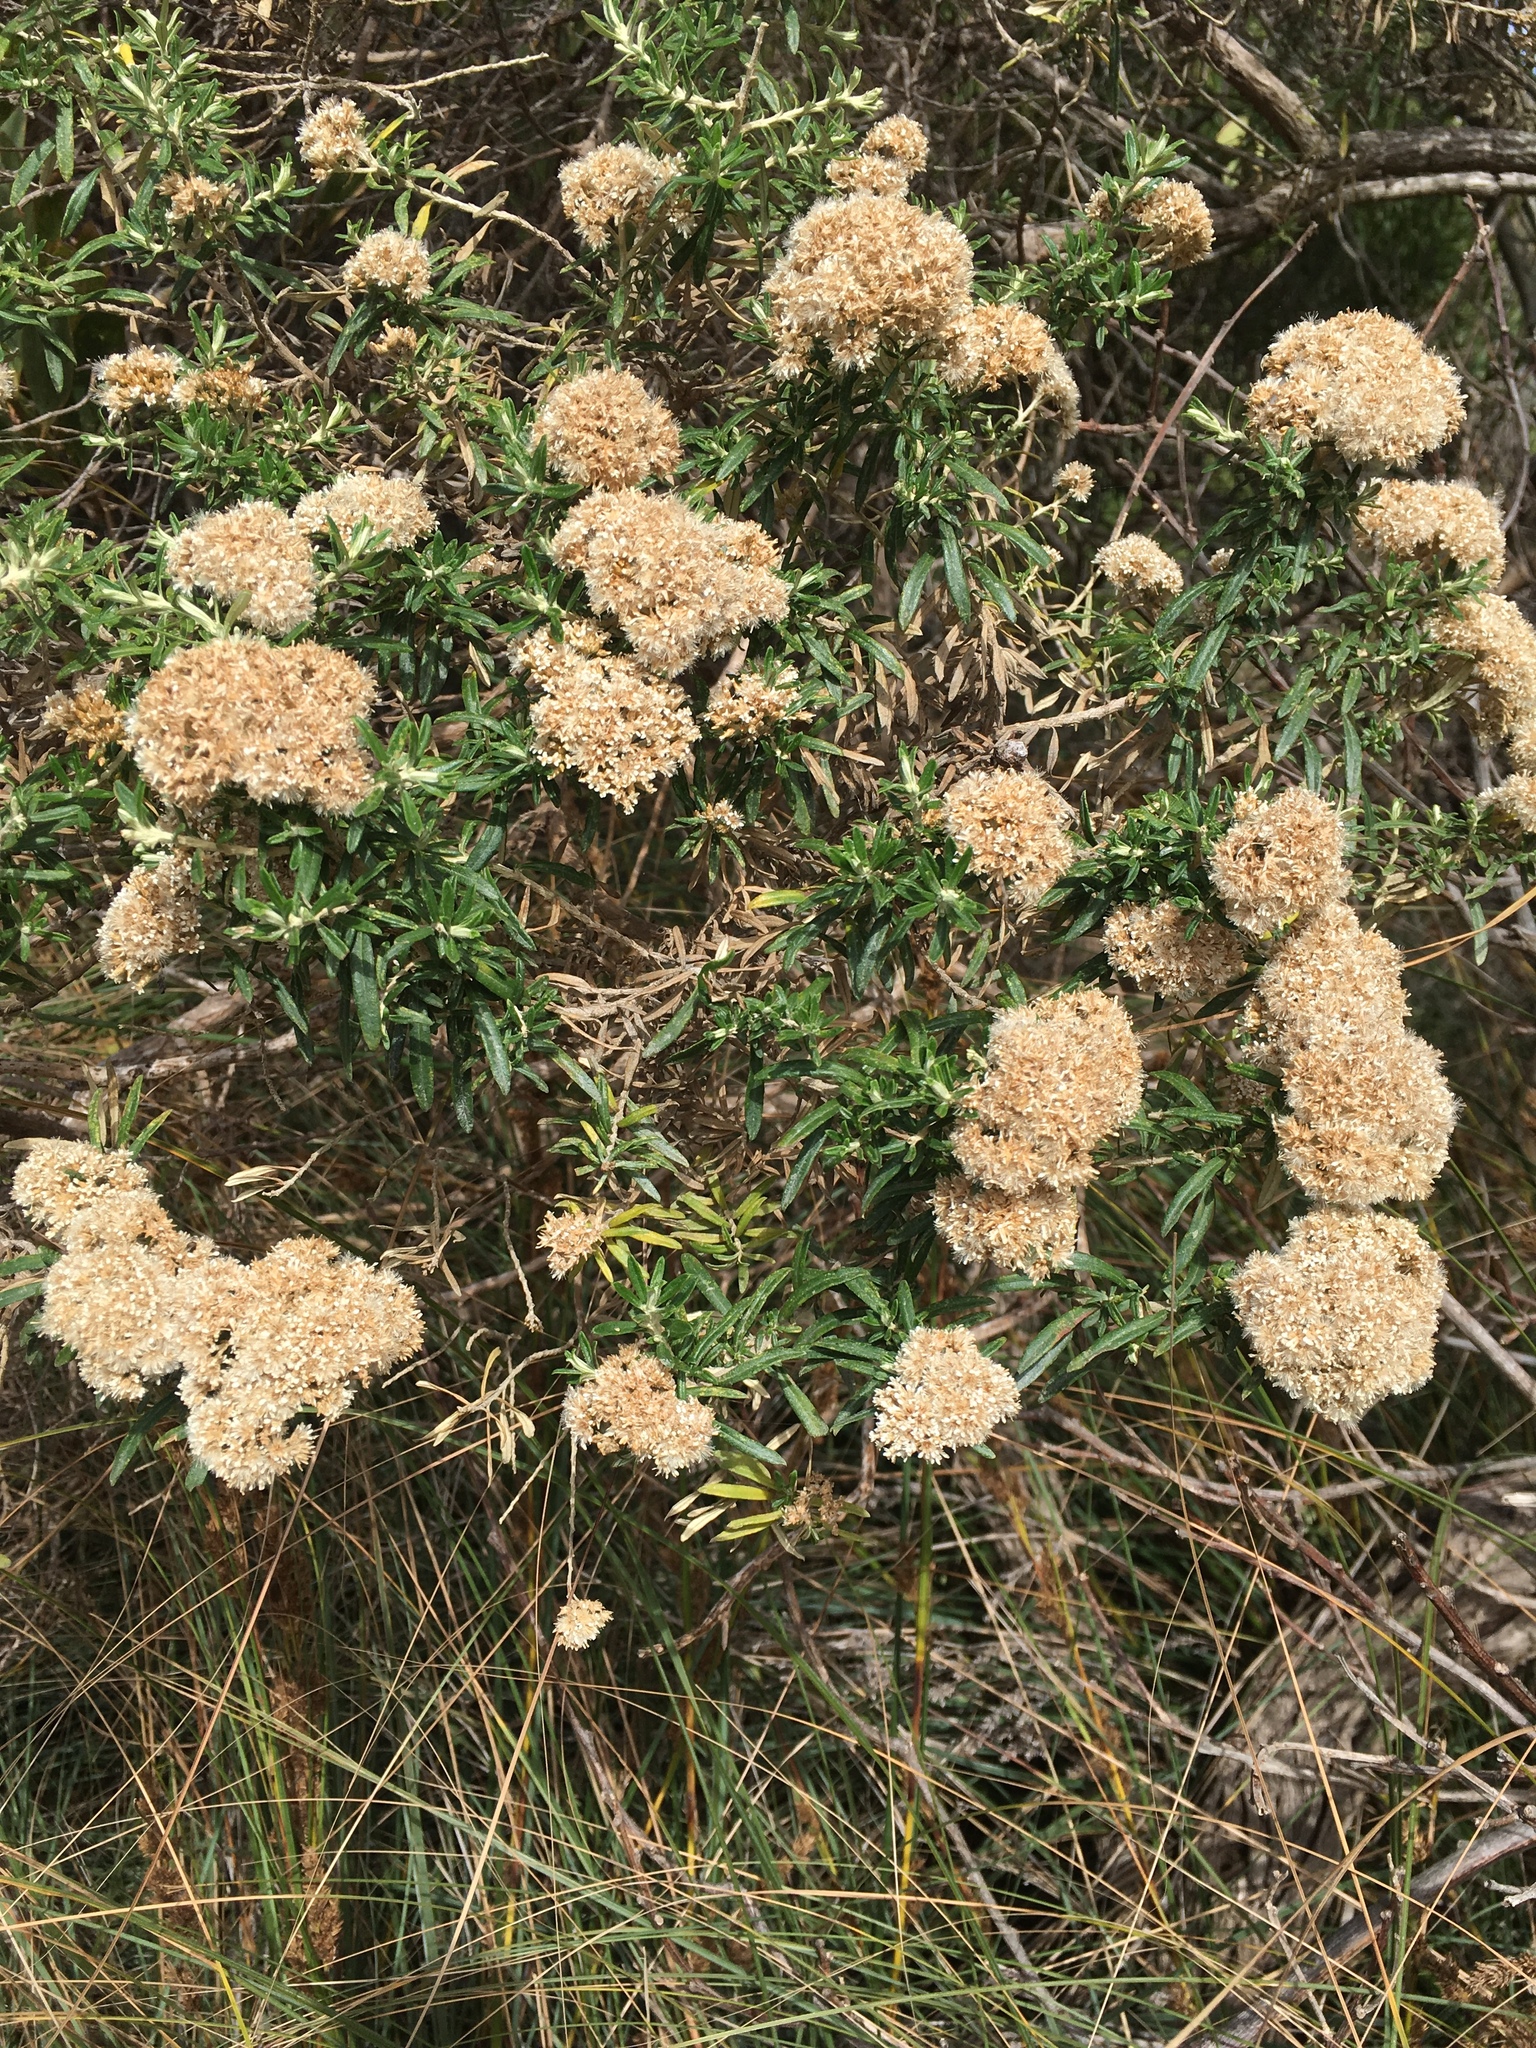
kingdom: Plantae
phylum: Tracheophyta
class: Magnoliopsida
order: Asterales
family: Asteraceae
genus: Ozothamnus
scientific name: Ozothamnus ferrugineus
